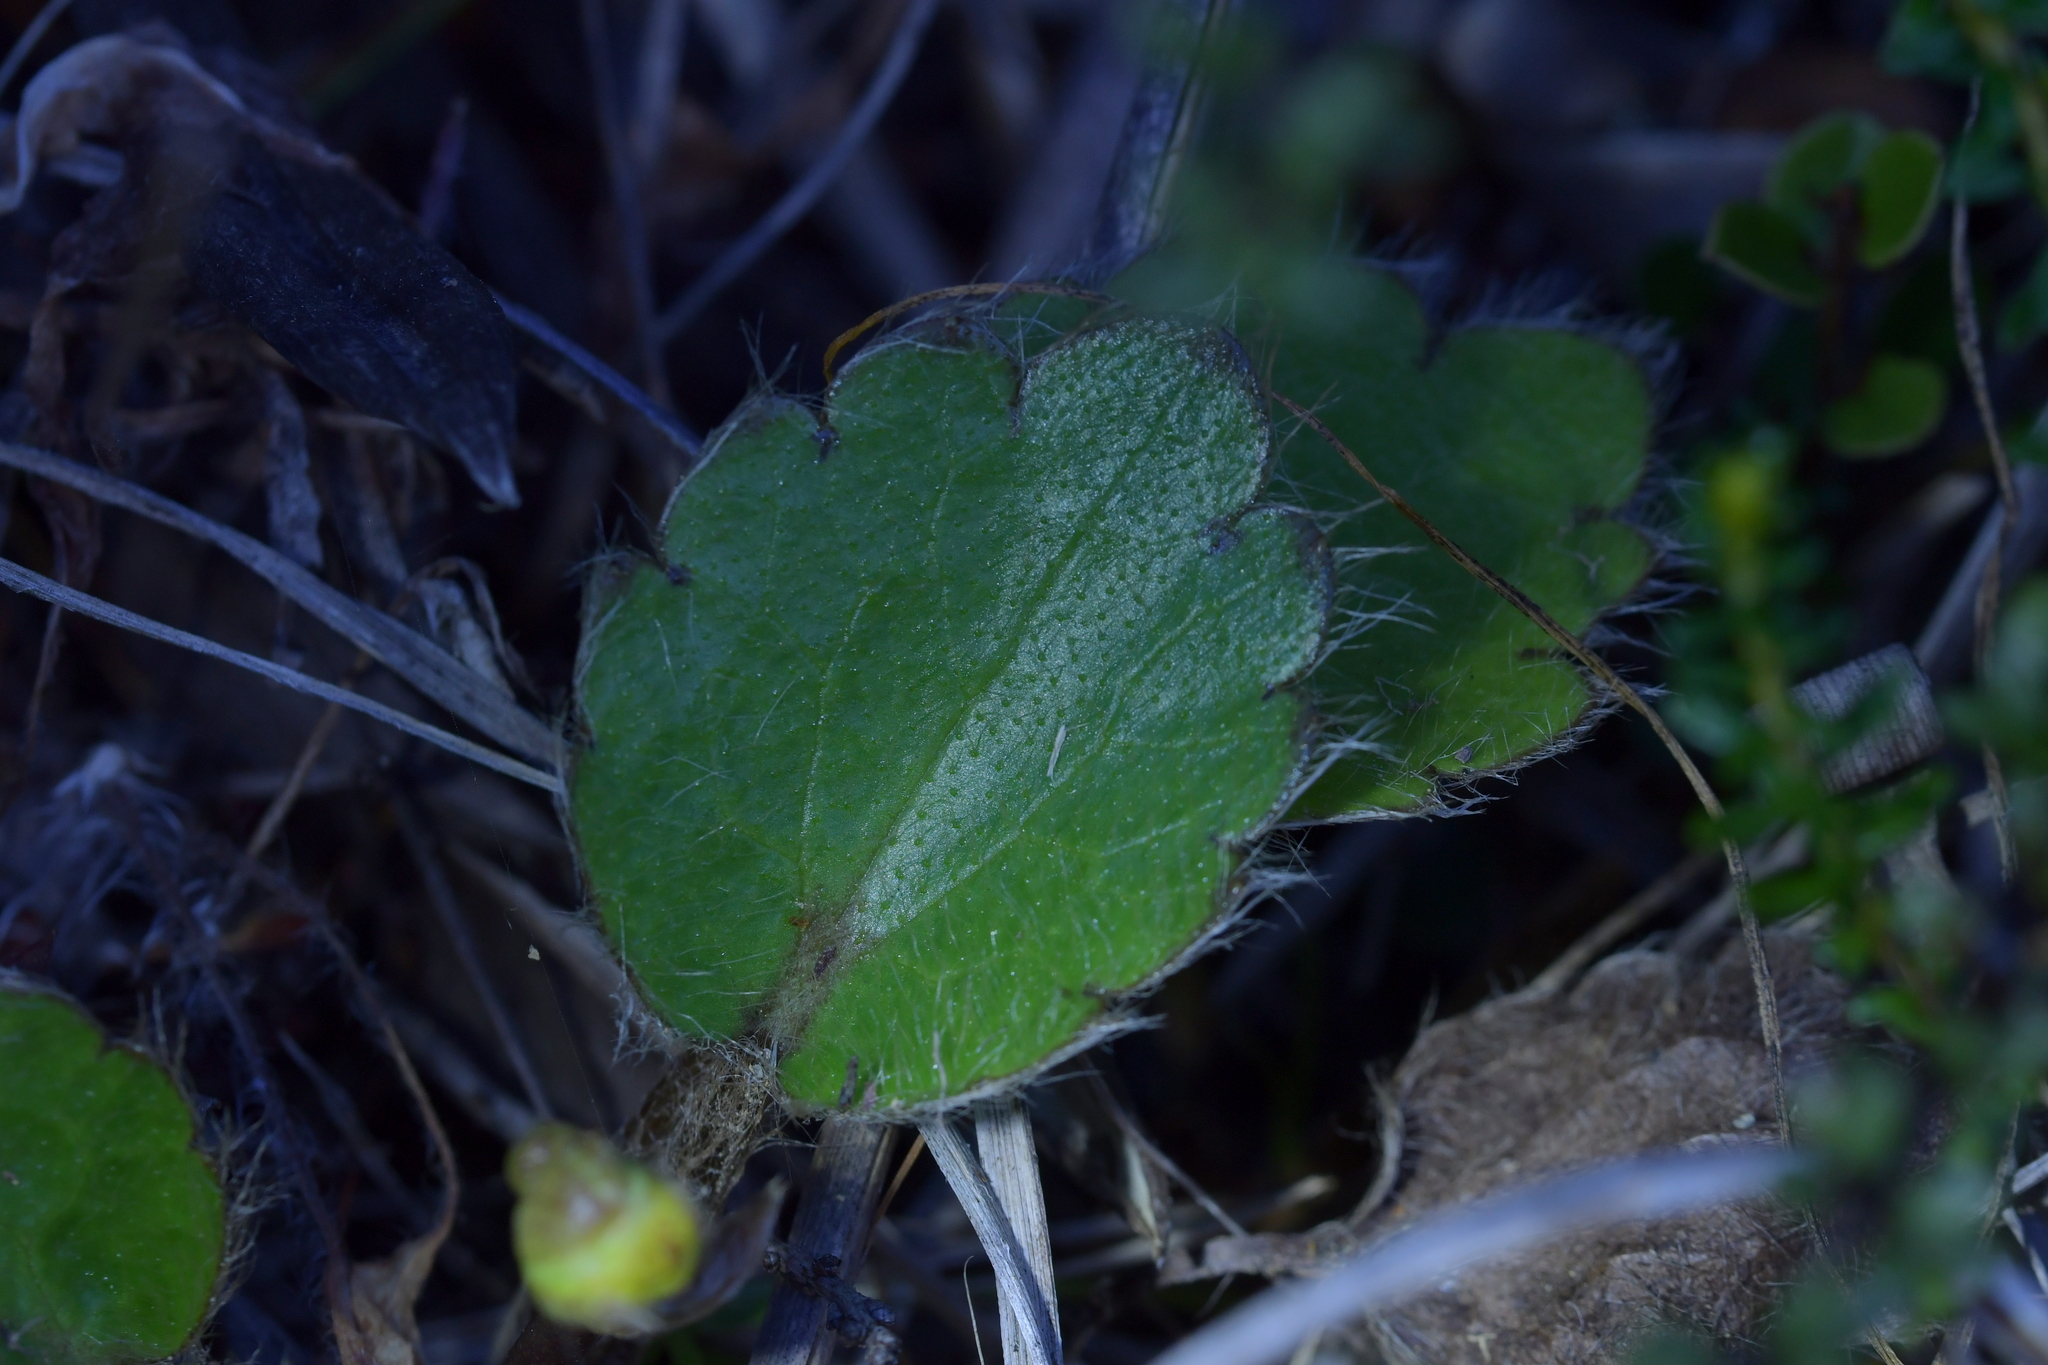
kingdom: Plantae
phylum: Tracheophyta
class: Magnoliopsida
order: Ranunculales
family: Ranunculaceae
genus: Ranunculus
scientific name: Ranunculus insignis
